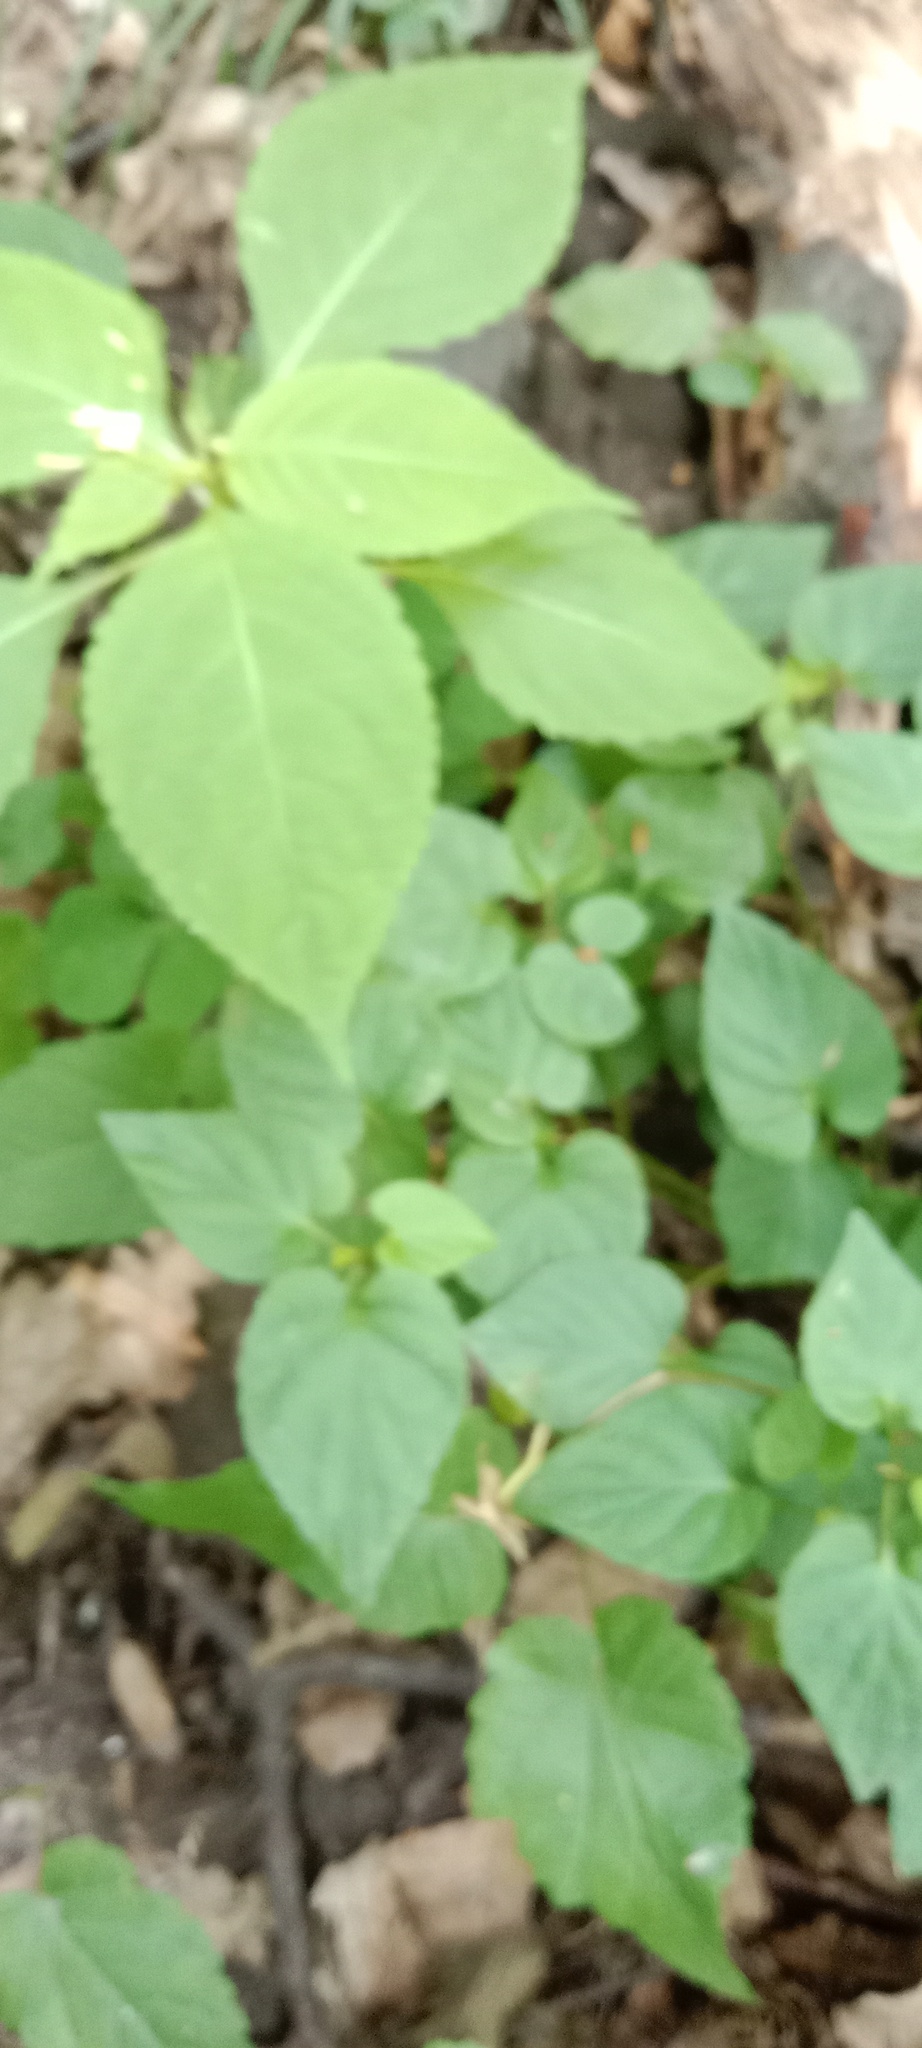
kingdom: Plantae
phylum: Tracheophyta
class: Magnoliopsida
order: Ericales
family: Balsaminaceae
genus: Impatiens
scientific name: Impatiens parviflora
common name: Small balsam
